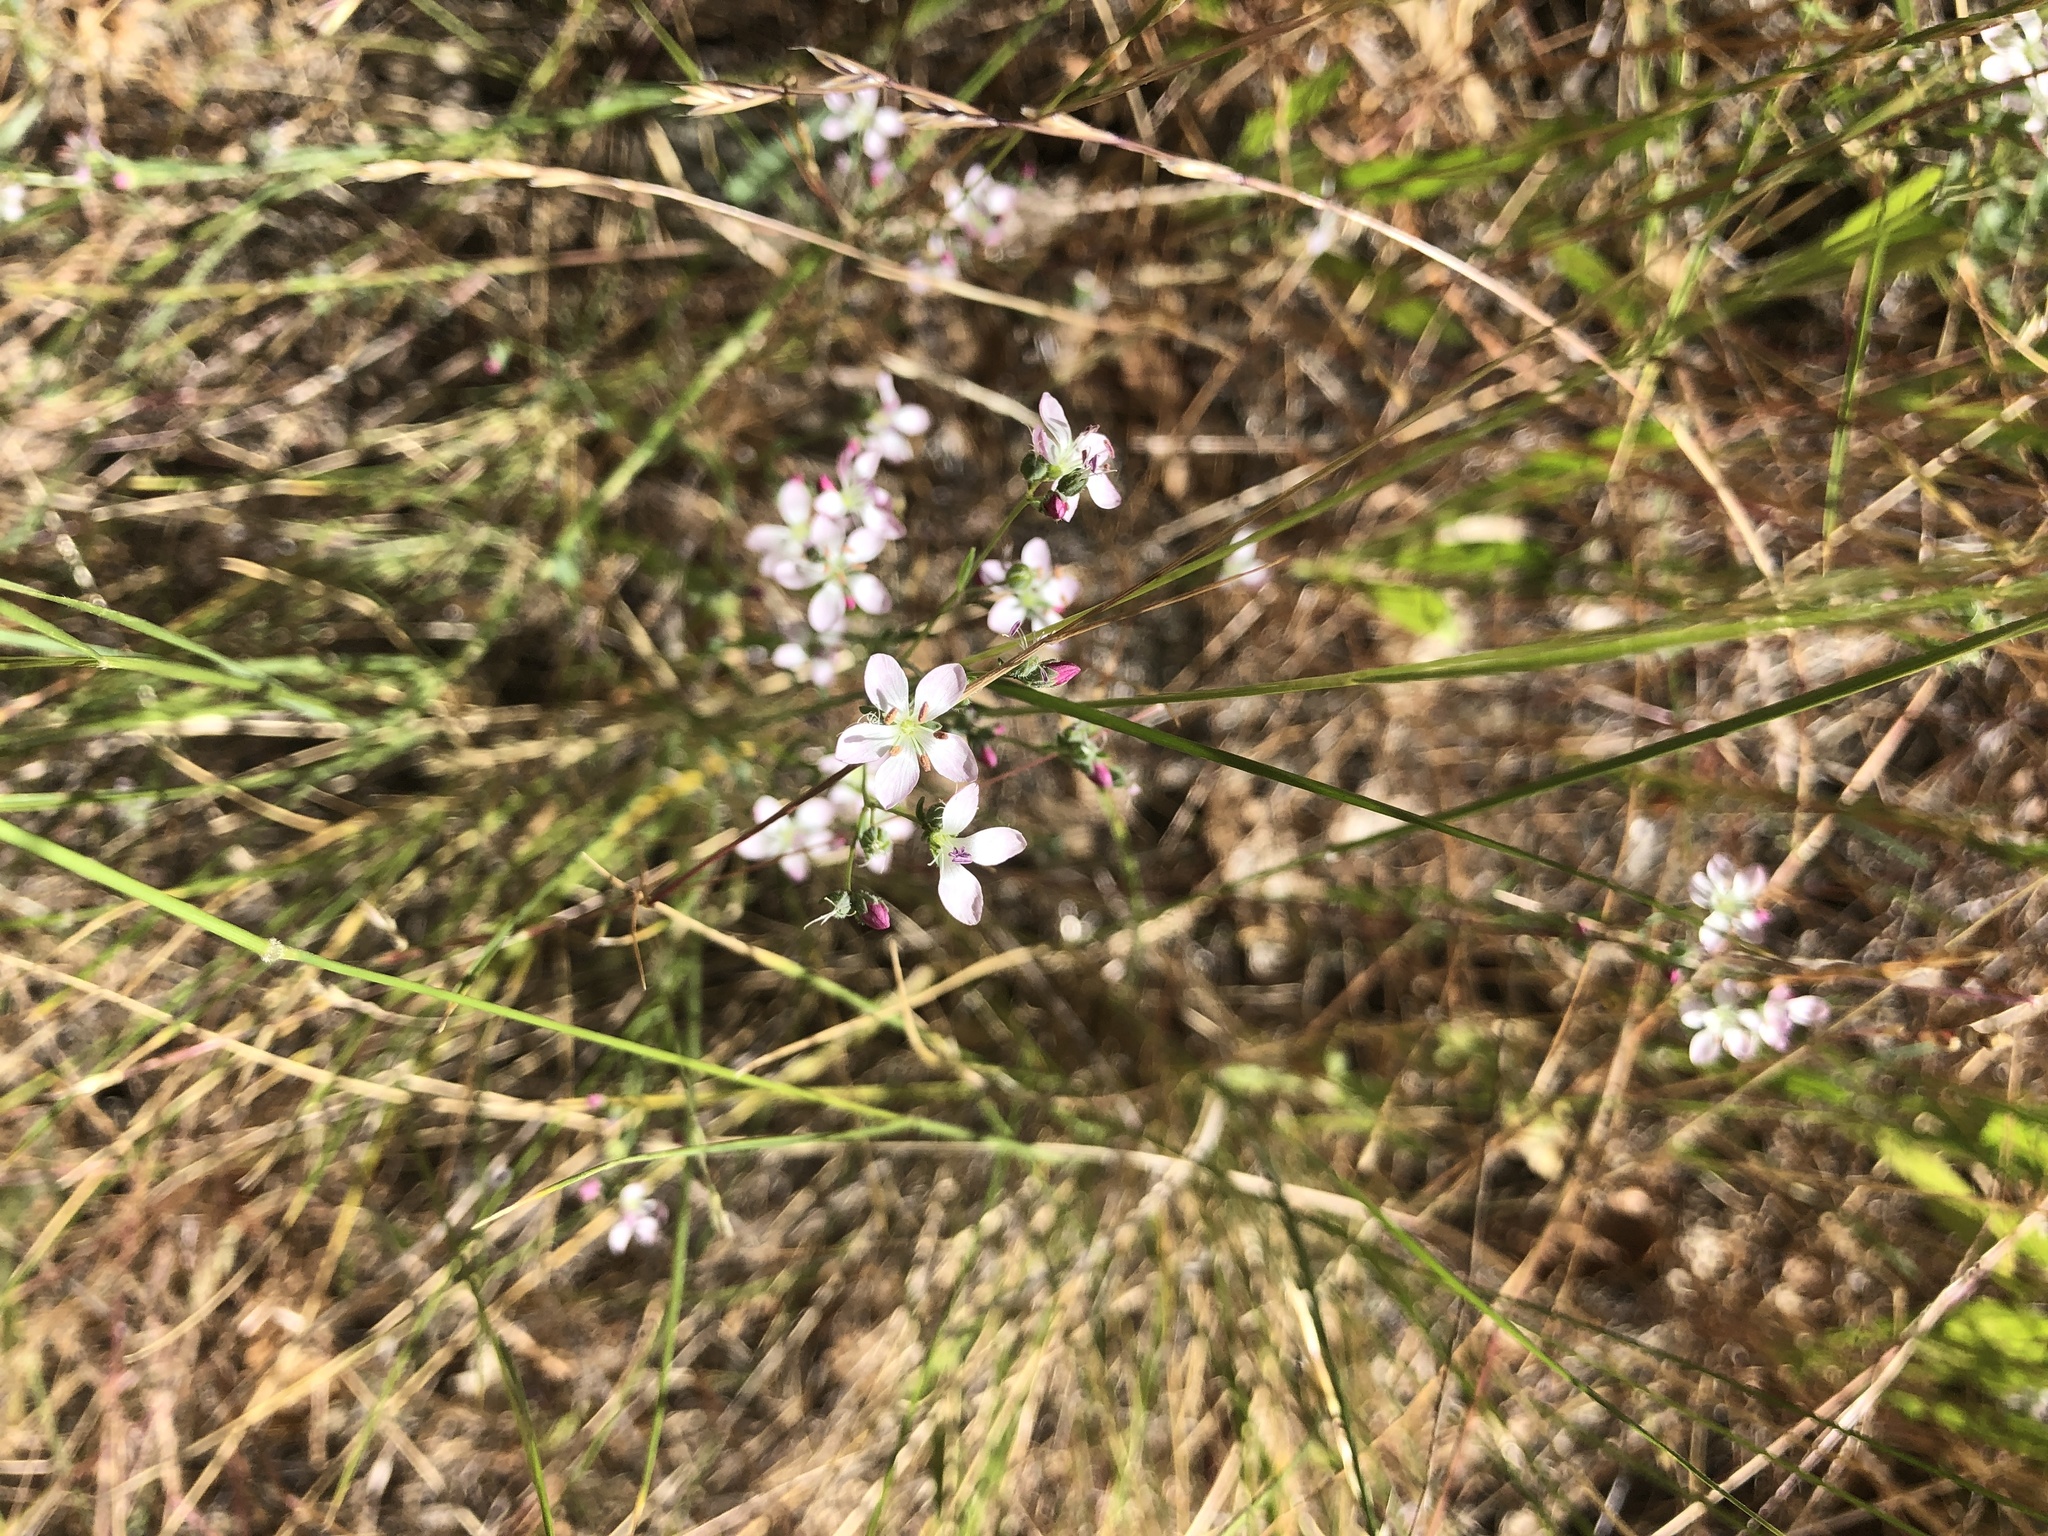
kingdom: Plantae
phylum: Tracheophyta
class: Magnoliopsida
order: Malpighiales
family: Linaceae
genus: Hesperolinon
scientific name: Hesperolinon congestum
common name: Marin dwarf-flax
